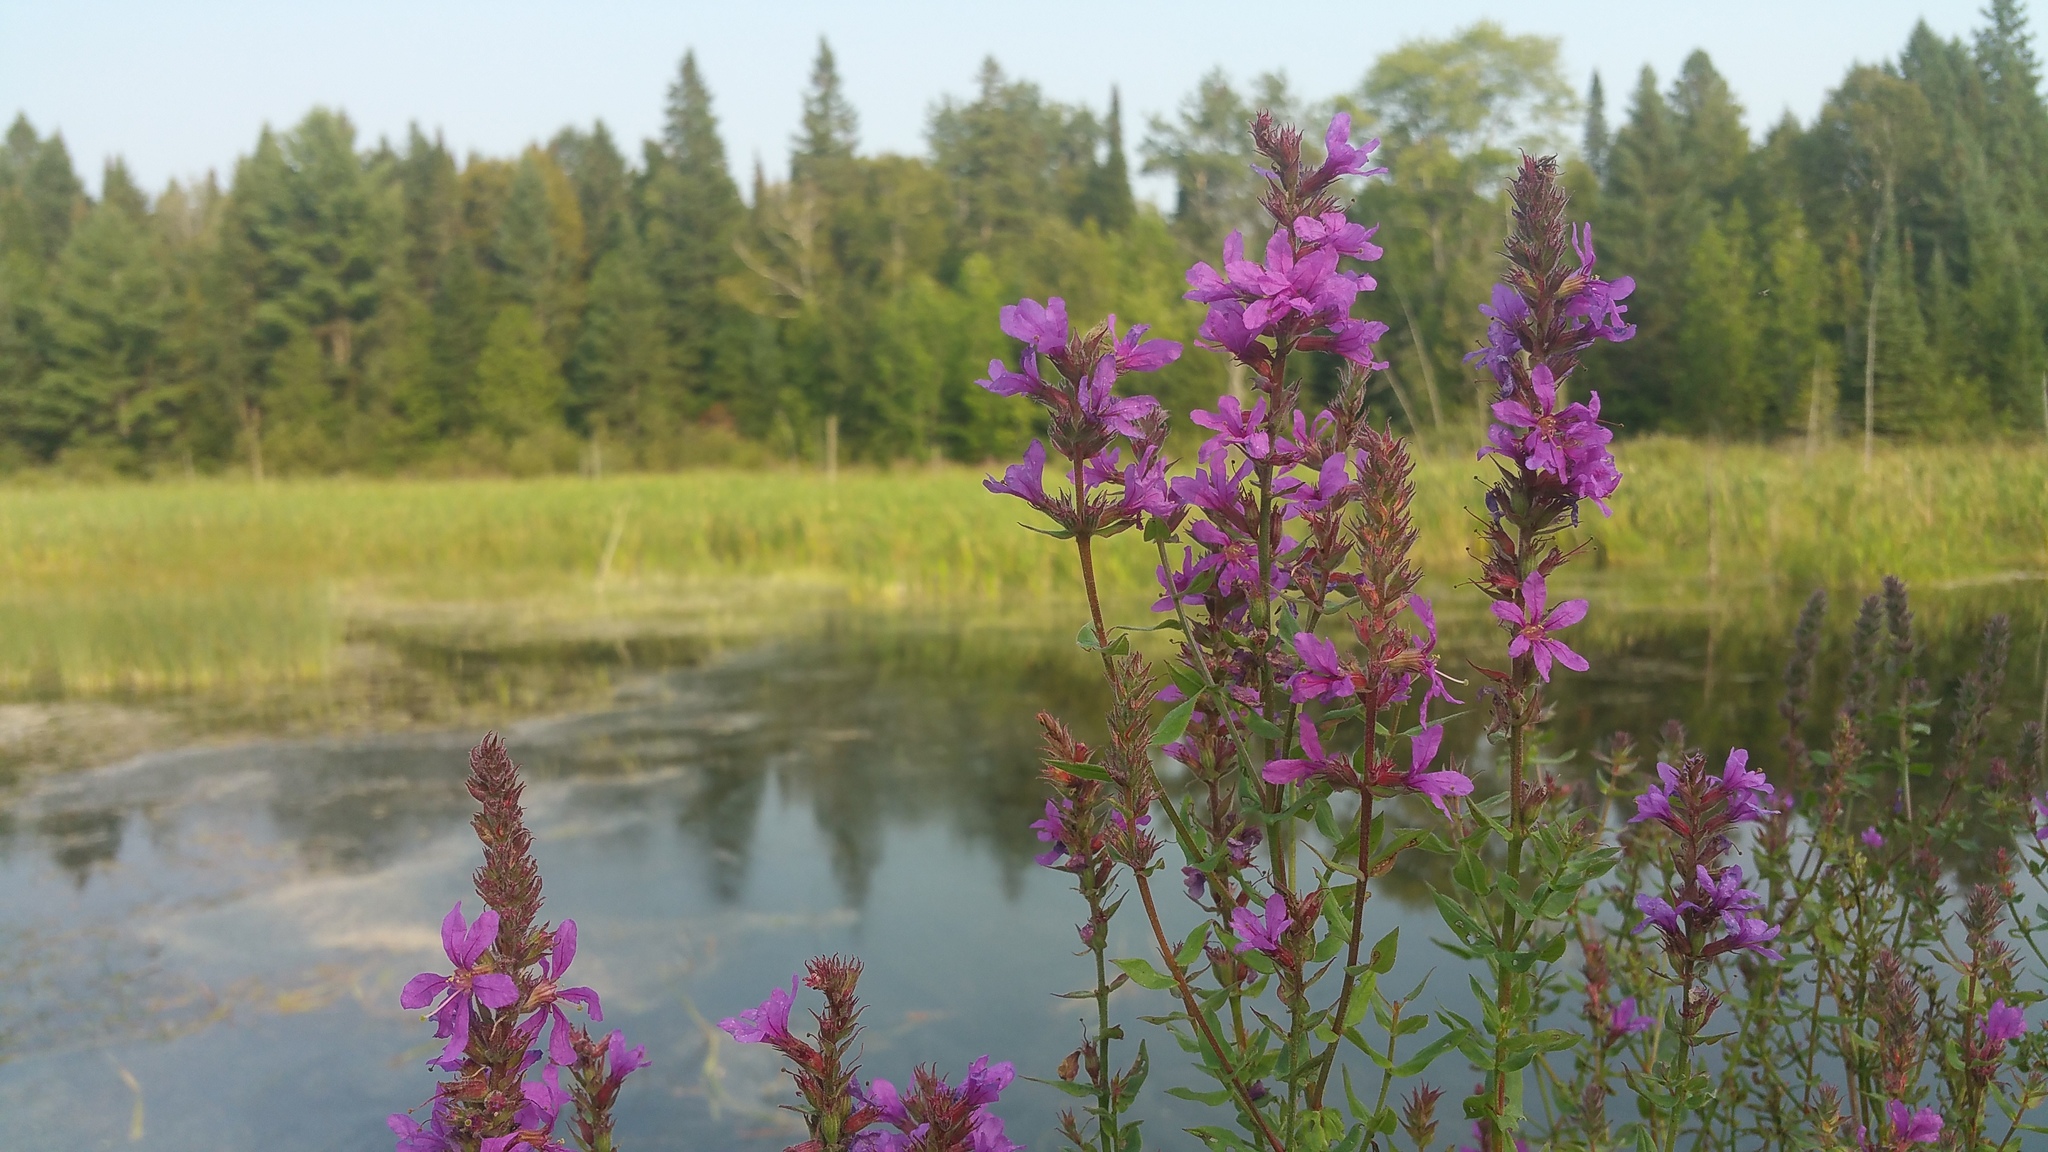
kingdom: Plantae
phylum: Tracheophyta
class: Magnoliopsida
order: Myrtales
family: Lythraceae
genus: Lythrum
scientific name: Lythrum salicaria
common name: Purple loosestrife
